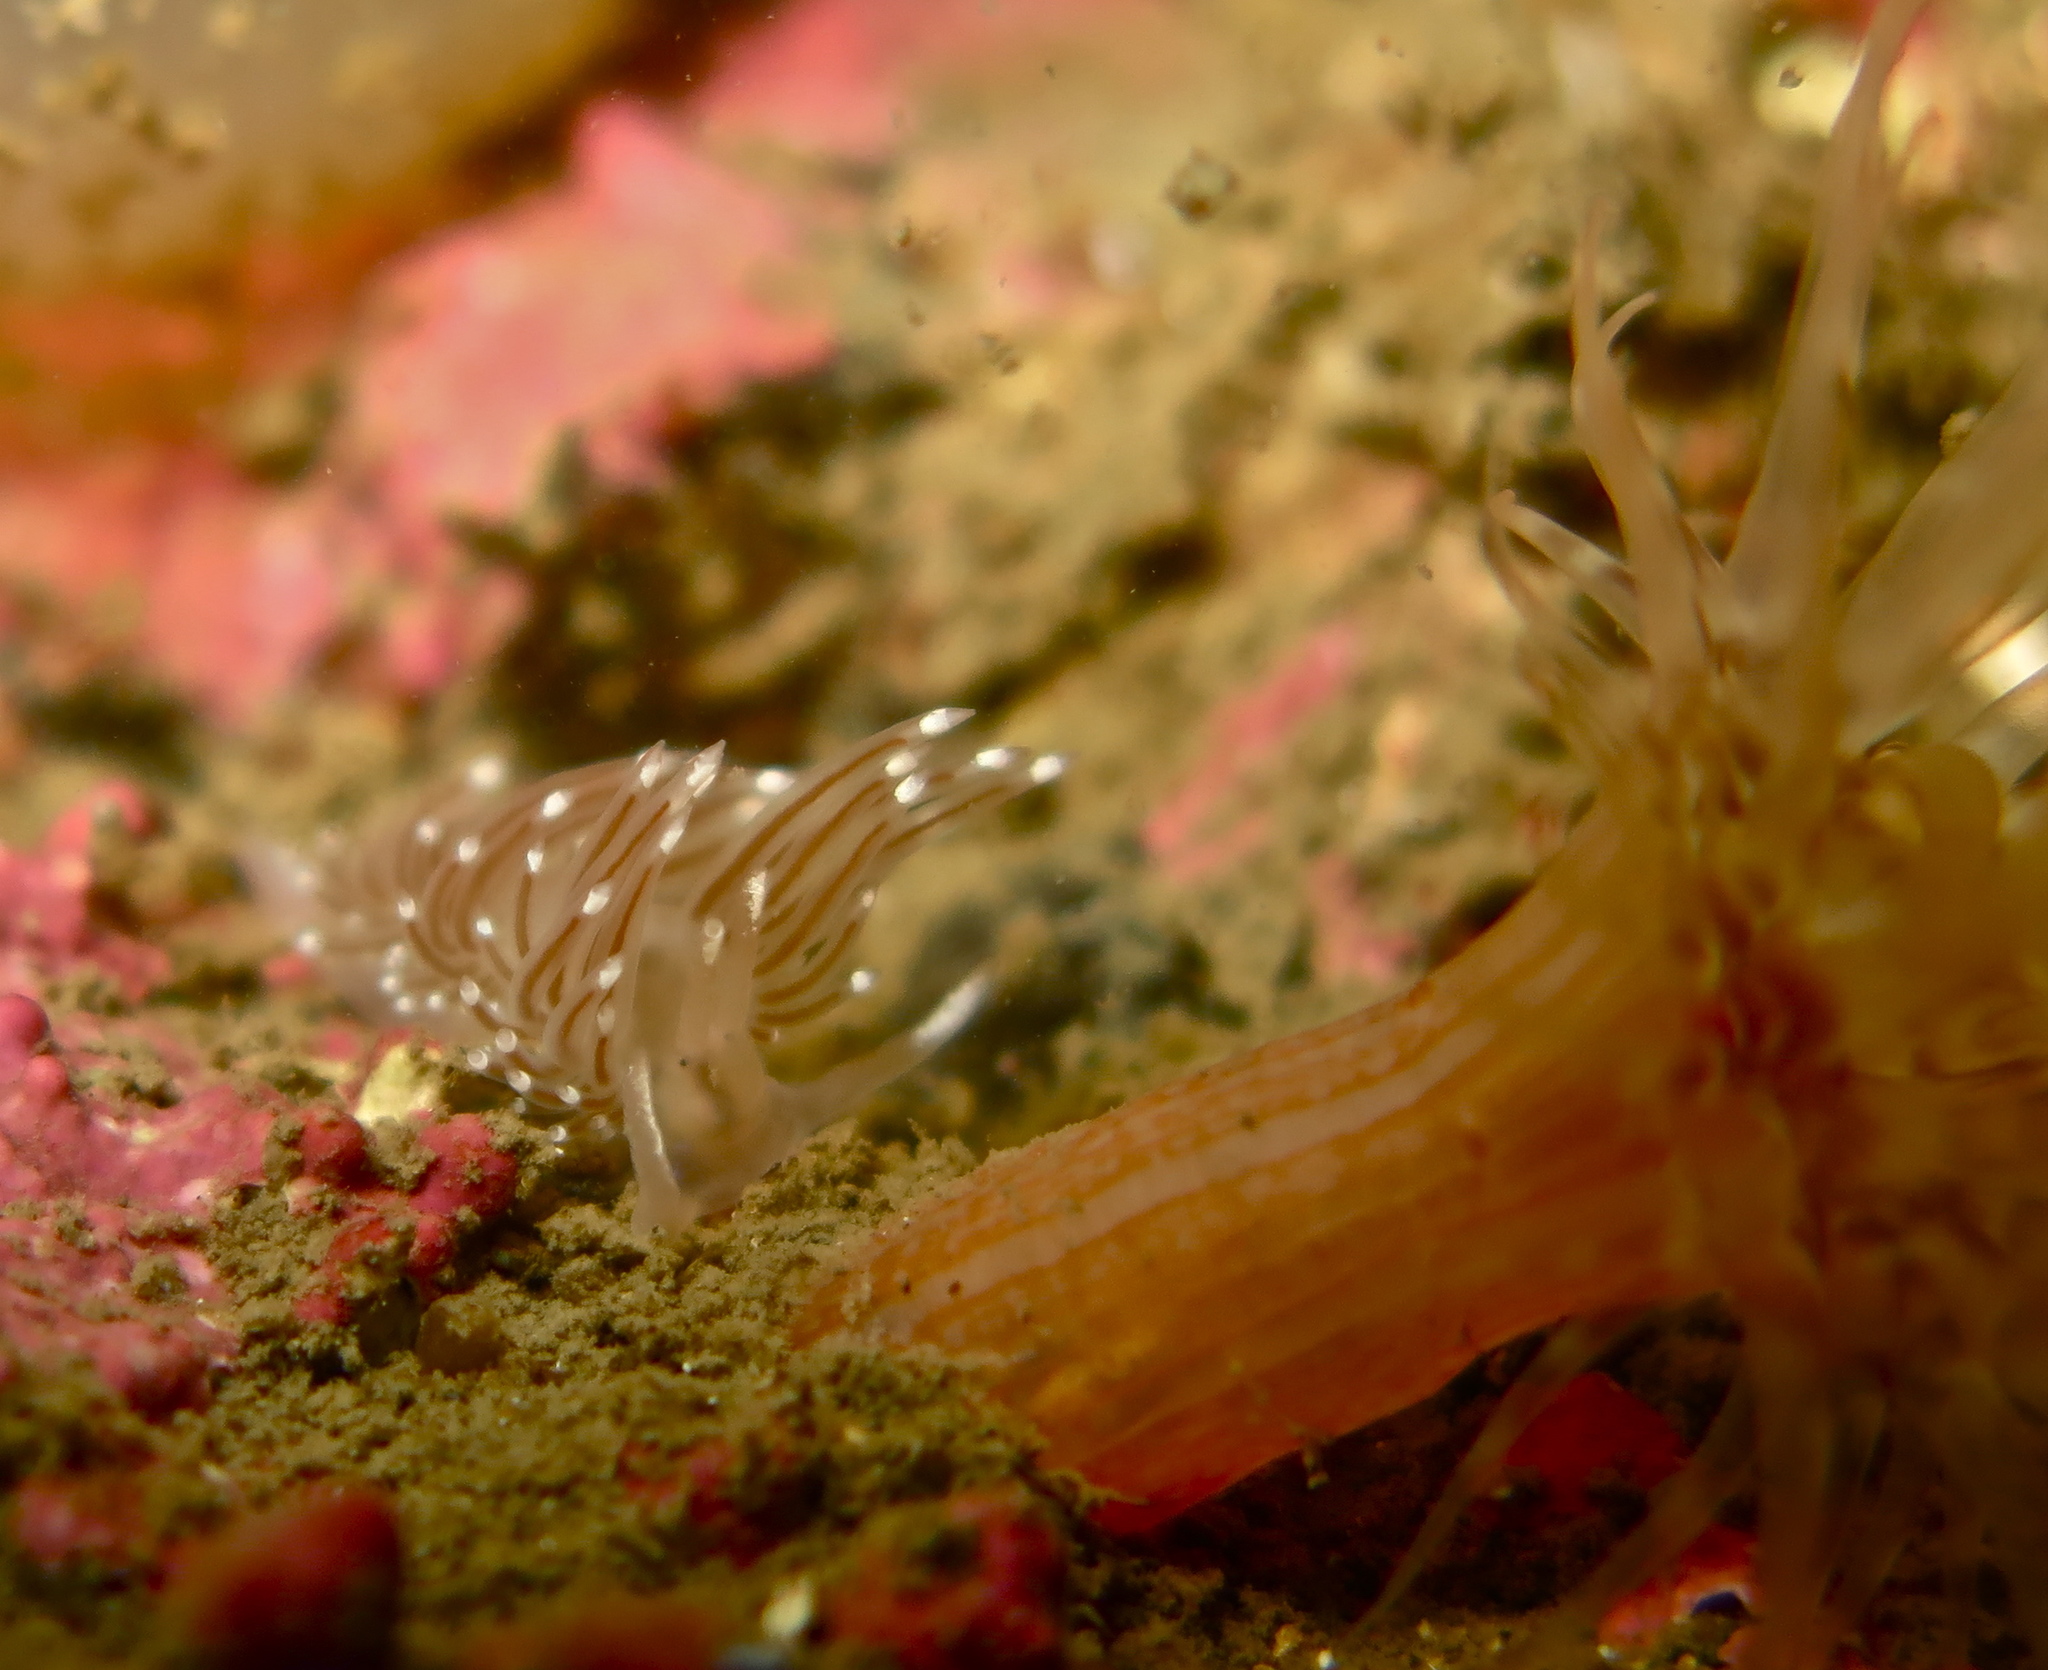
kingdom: Animalia
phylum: Mollusca
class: Gastropoda
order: Nudibranchia
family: Coryphellidae
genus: Coryphella
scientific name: Coryphella verrucosa
